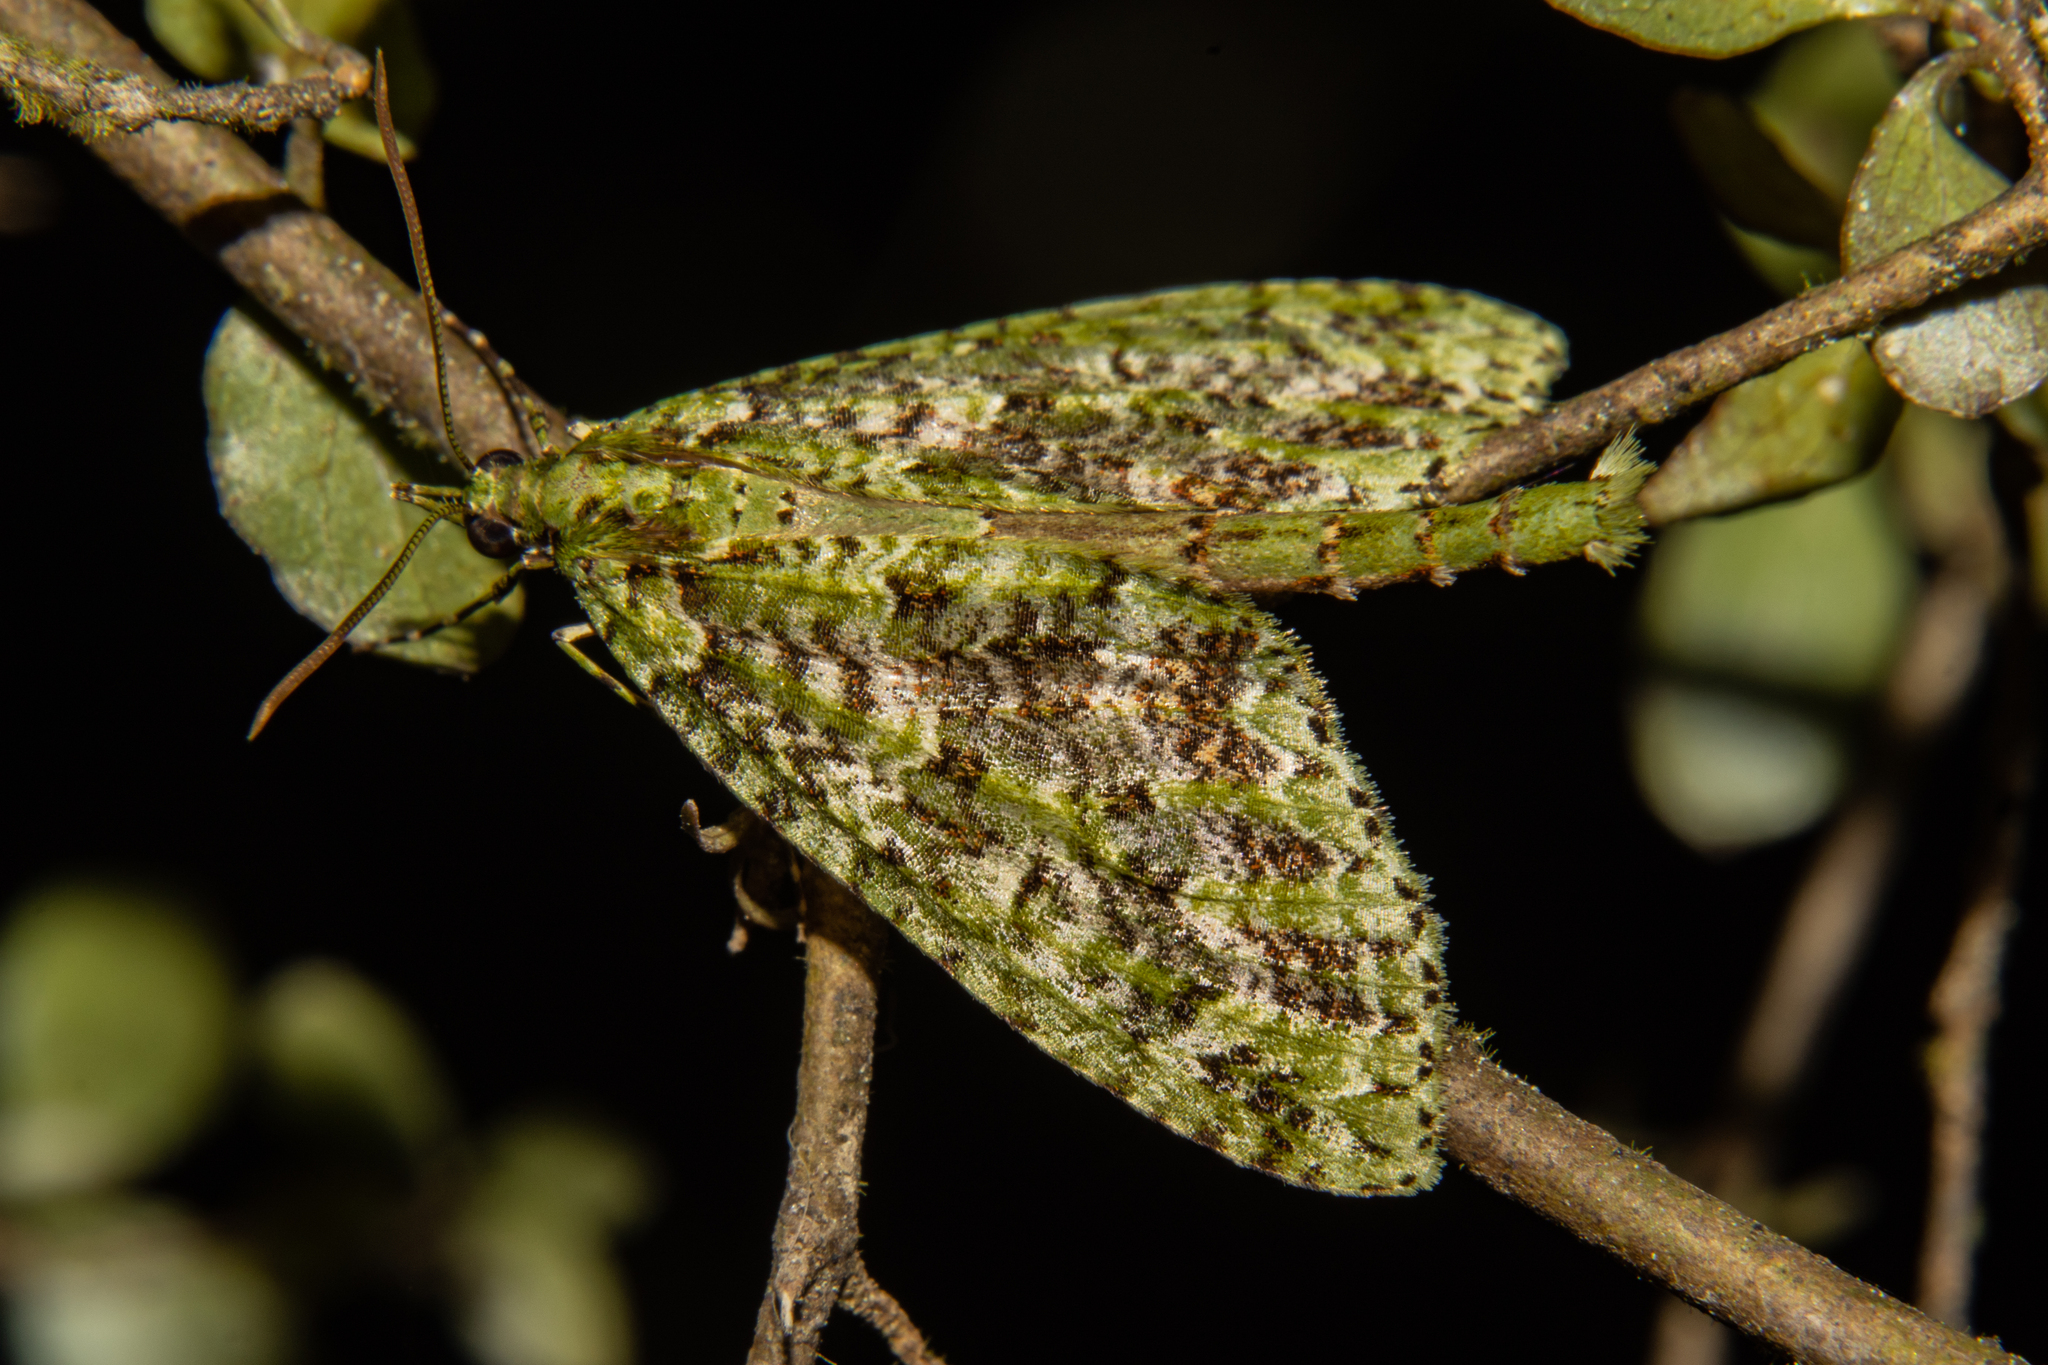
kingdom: Animalia
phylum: Arthropoda
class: Insecta
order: Lepidoptera
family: Geometridae
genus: Tatosoma
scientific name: Tatosoma tipulata
